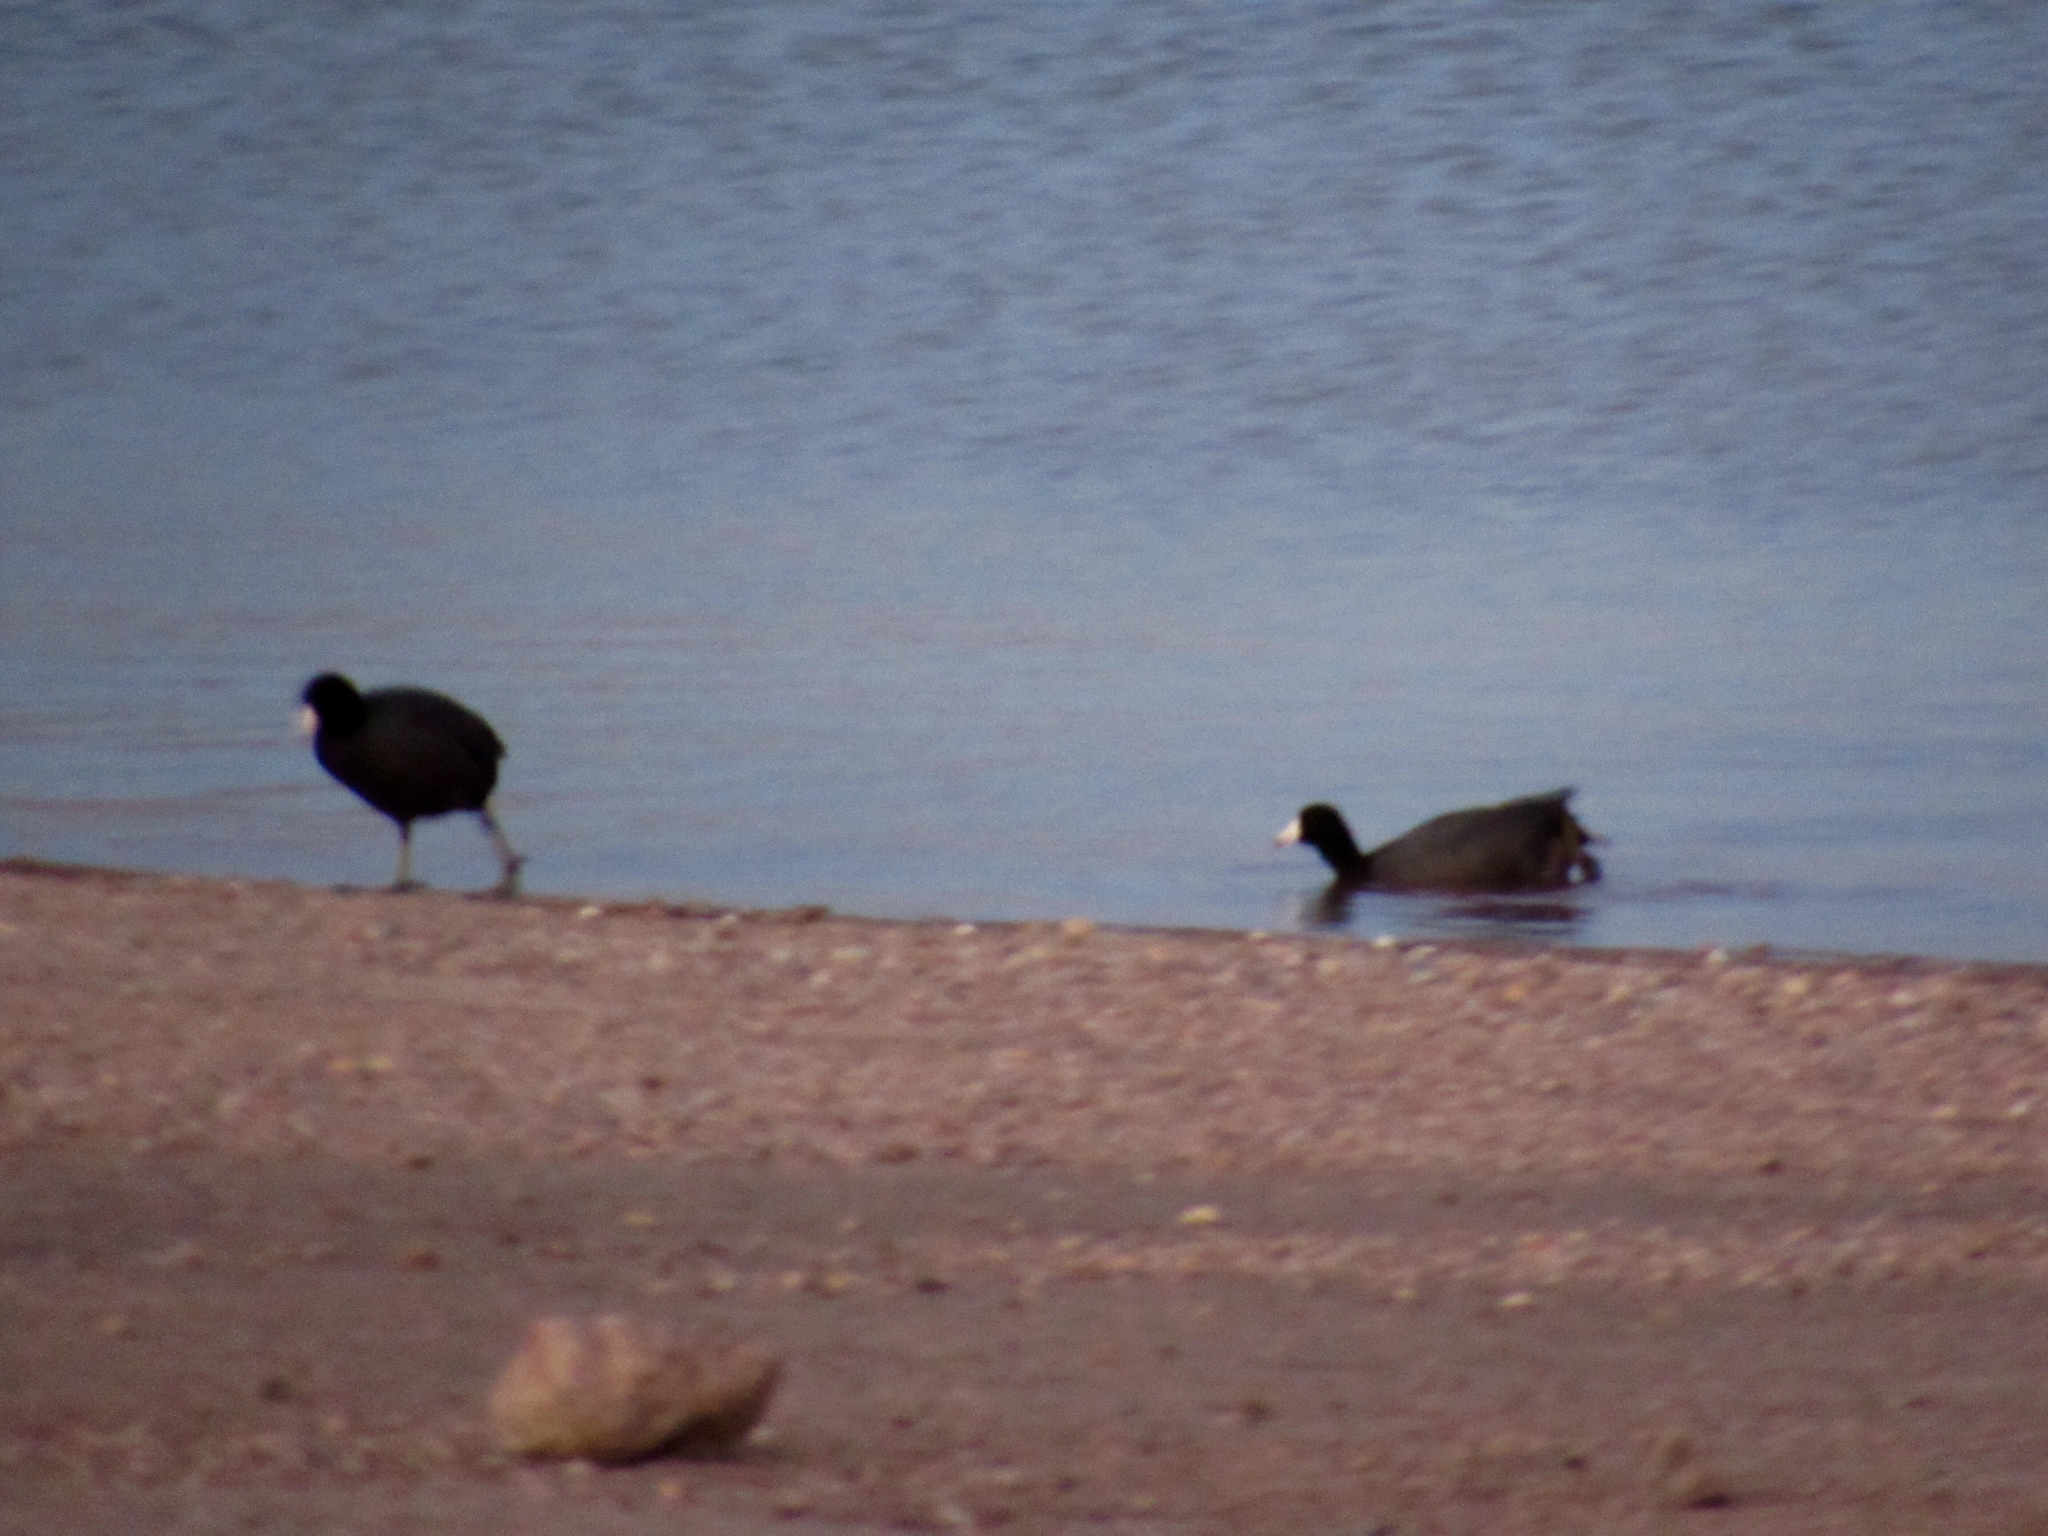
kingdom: Animalia
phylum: Chordata
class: Aves
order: Gruiformes
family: Rallidae
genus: Fulica
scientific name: Fulica americana
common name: American coot
